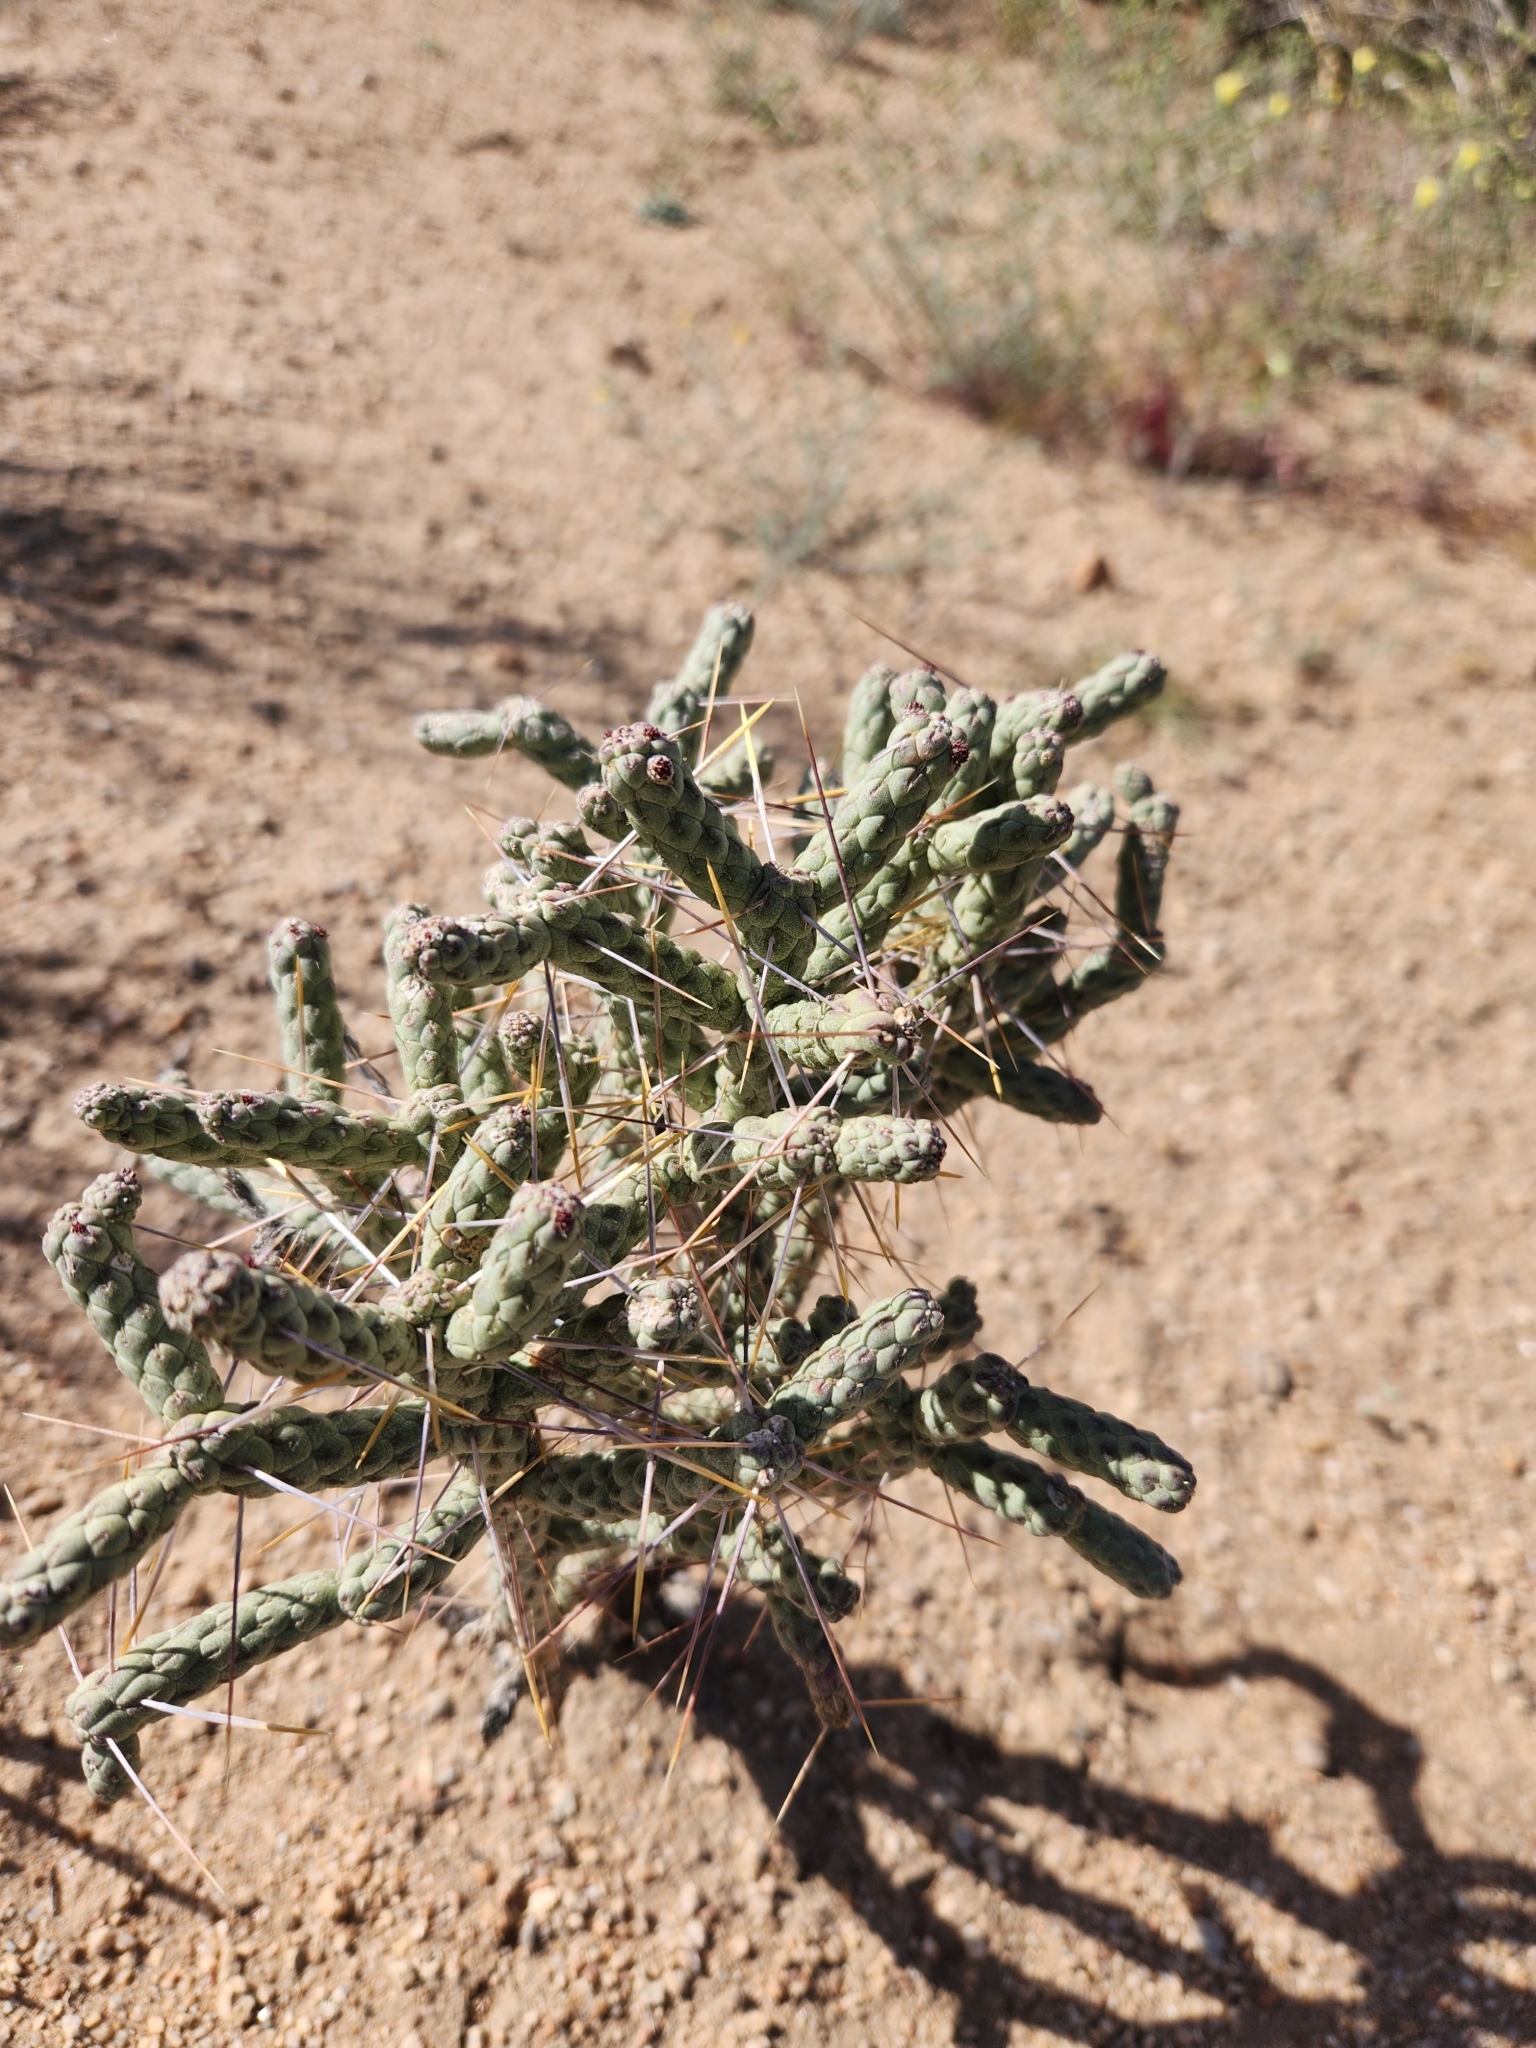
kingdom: Plantae
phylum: Tracheophyta
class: Magnoliopsida
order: Caryophyllales
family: Cactaceae
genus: Cylindropuntia
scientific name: Cylindropuntia ramosissima
